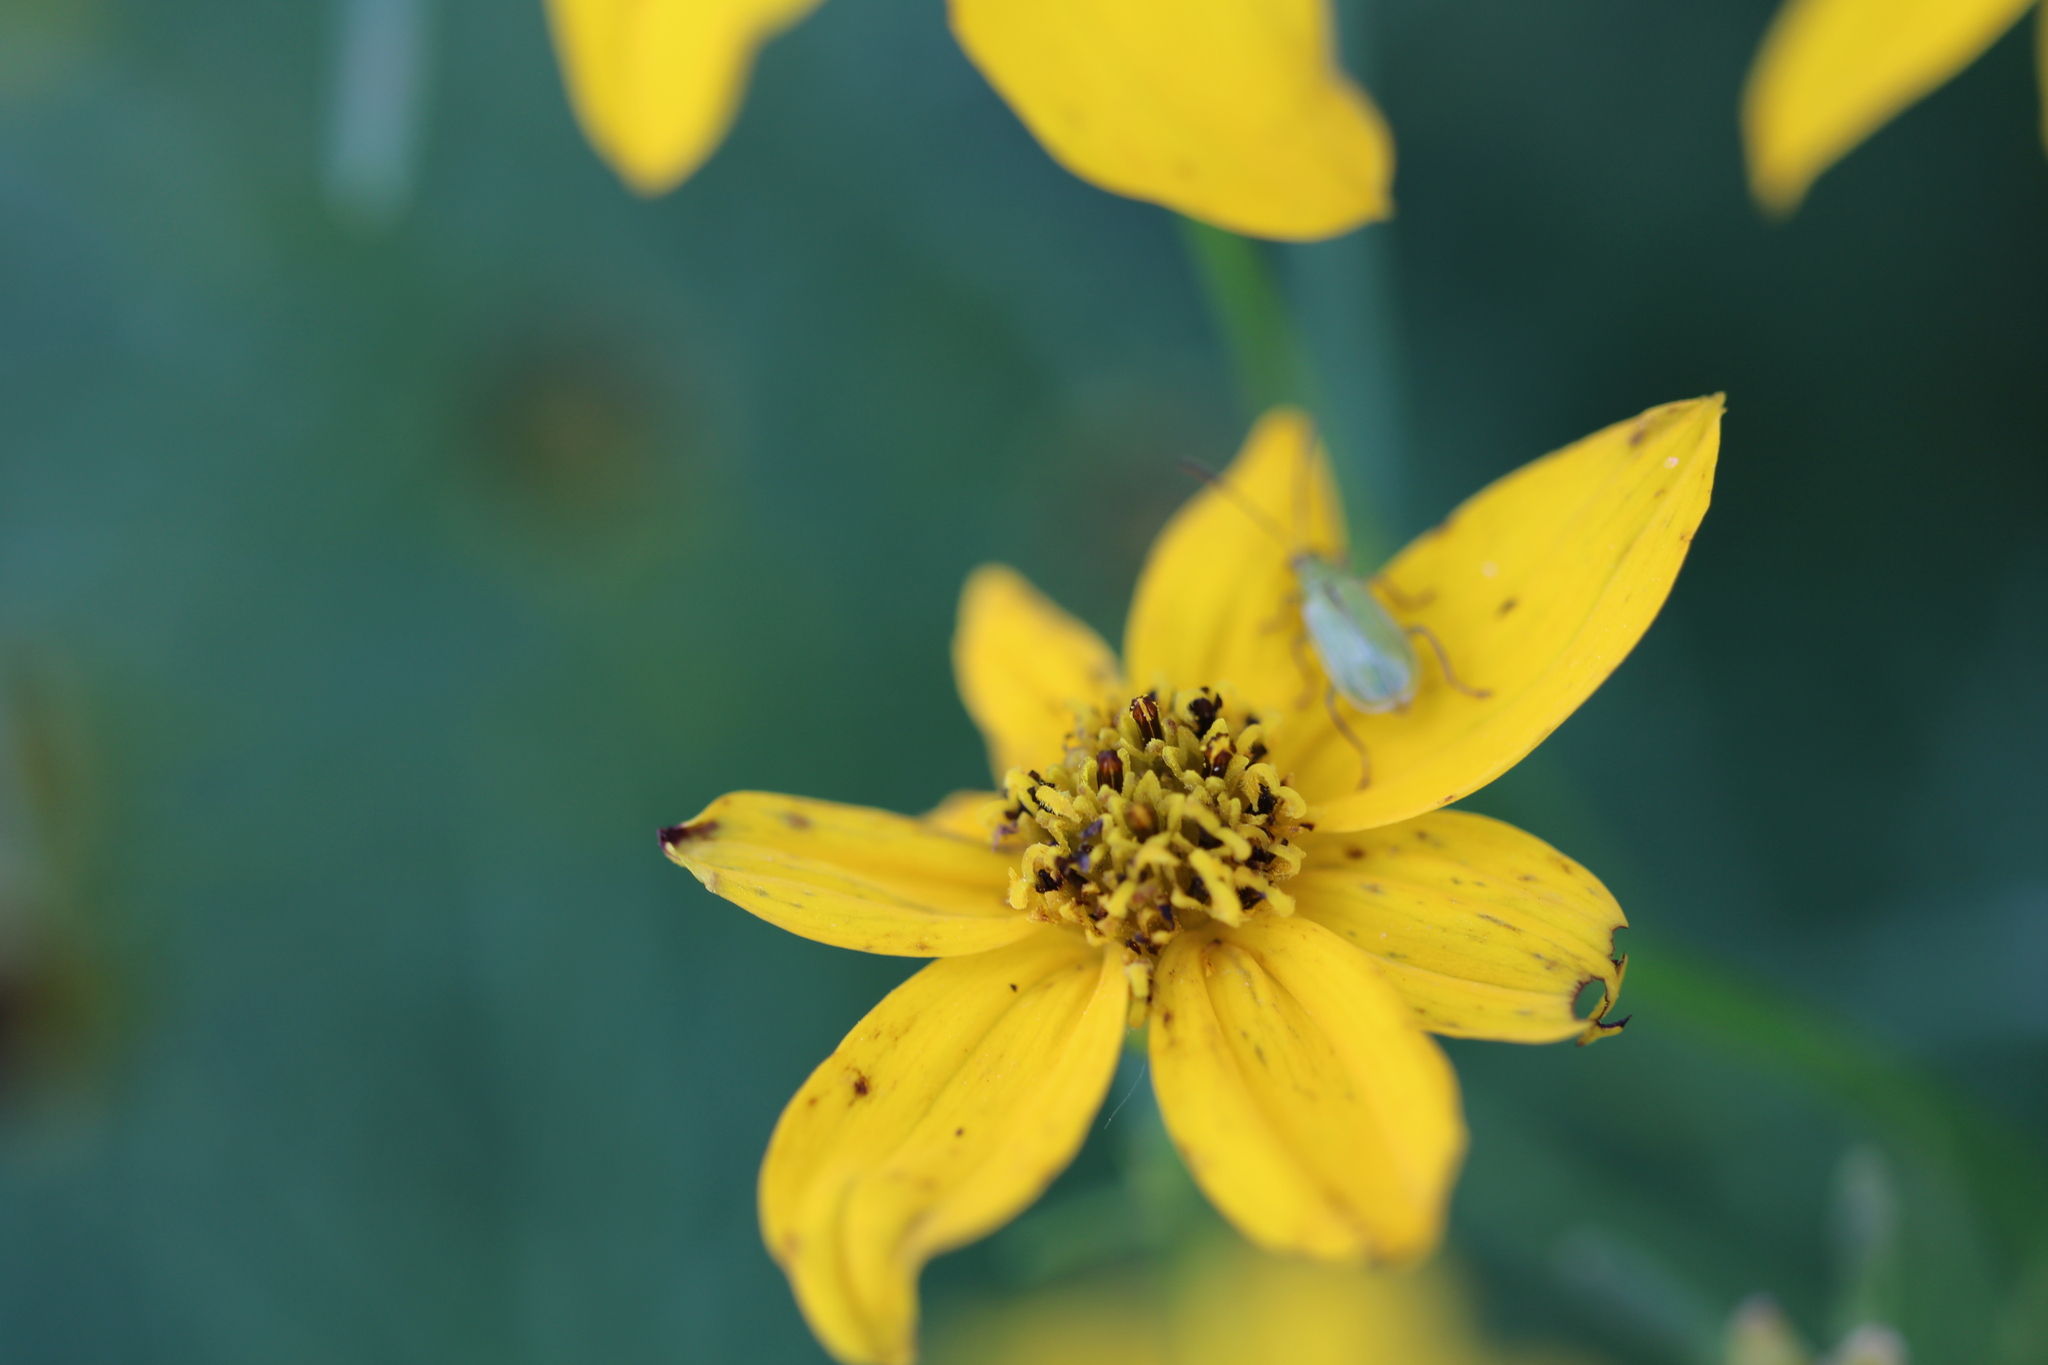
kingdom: Animalia
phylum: Arthropoda
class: Insecta
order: Coleoptera
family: Chrysomelidae
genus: Diabrotica
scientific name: Diabrotica barberi
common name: Northern corn rootworm
